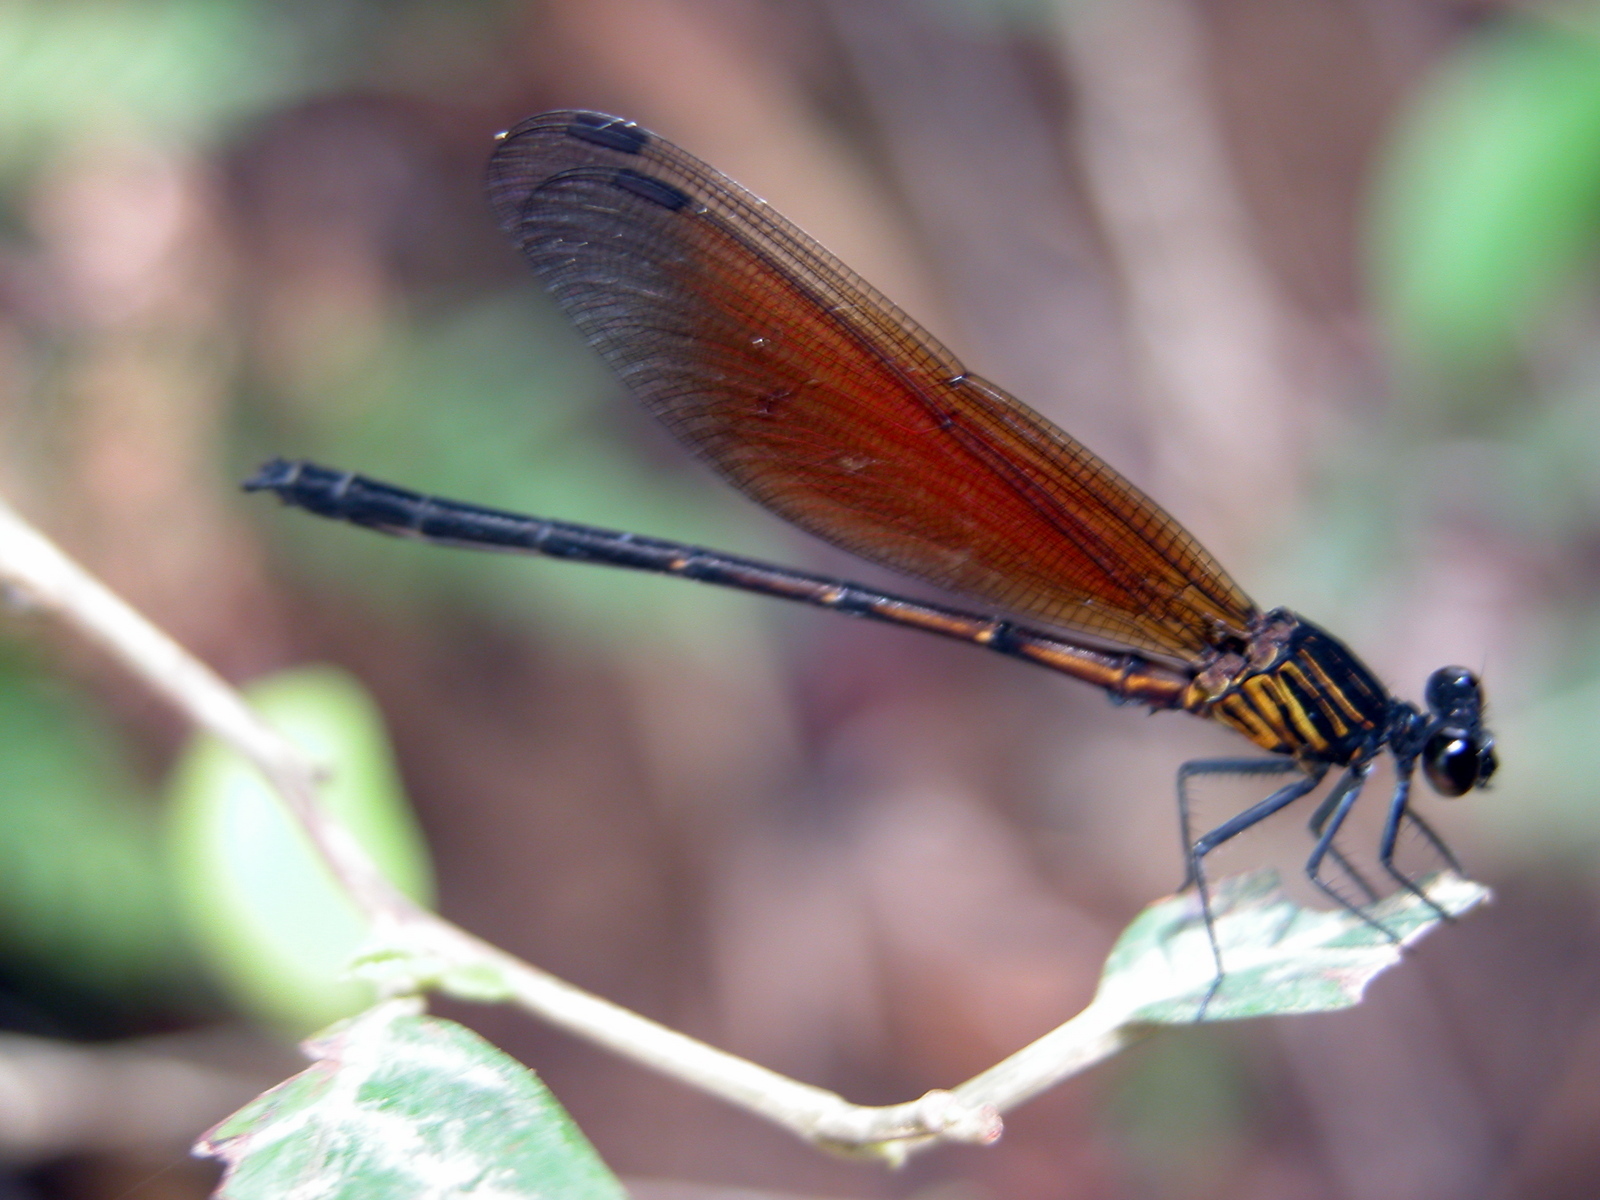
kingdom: Animalia
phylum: Arthropoda
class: Insecta
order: Odonata
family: Euphaeidae
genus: Euphaea
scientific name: Euphaea ochracea
